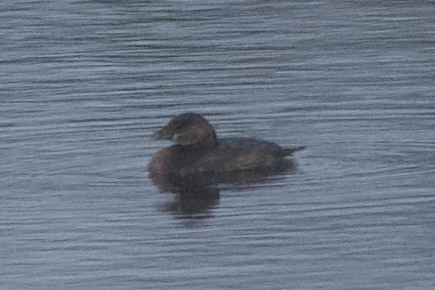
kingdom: Animalia
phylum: Chordata
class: Aves
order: Podicipediformes
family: Podicipedidae
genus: Podilymbus
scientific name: Podilymbus podiceps
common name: Pied-billed grebe
